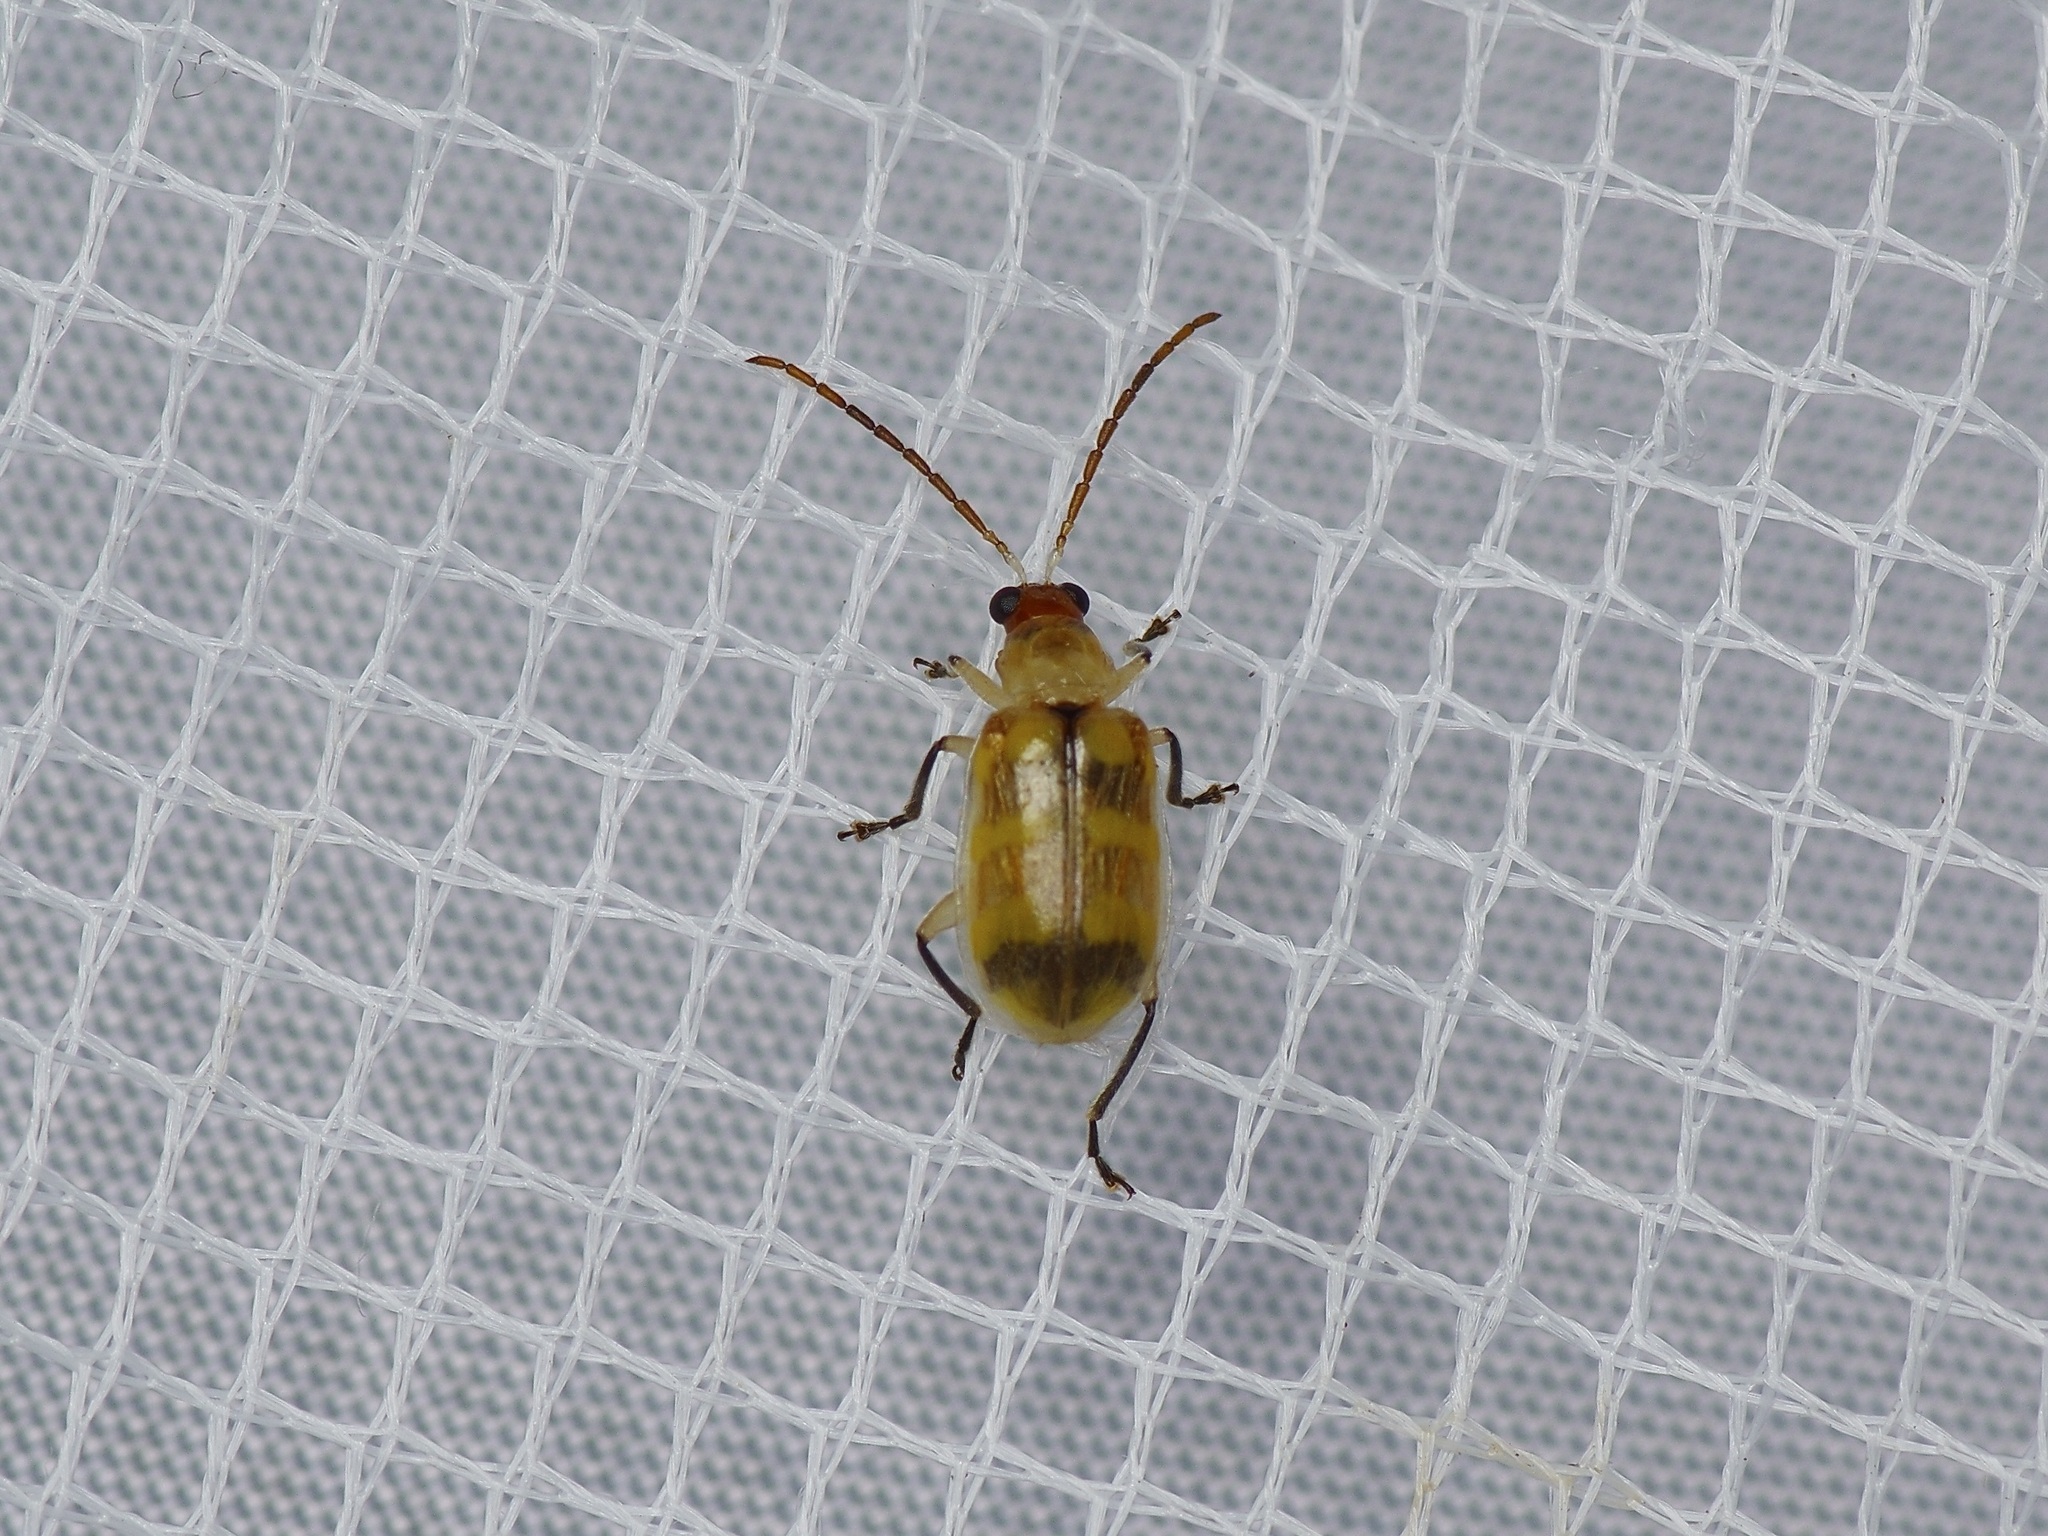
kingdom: Animalia
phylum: Arthropoda
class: Insecta
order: Coleoptera
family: Chrysomelidae
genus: Diabrotica
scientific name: Diabrotica balteata
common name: Leaf beetle
